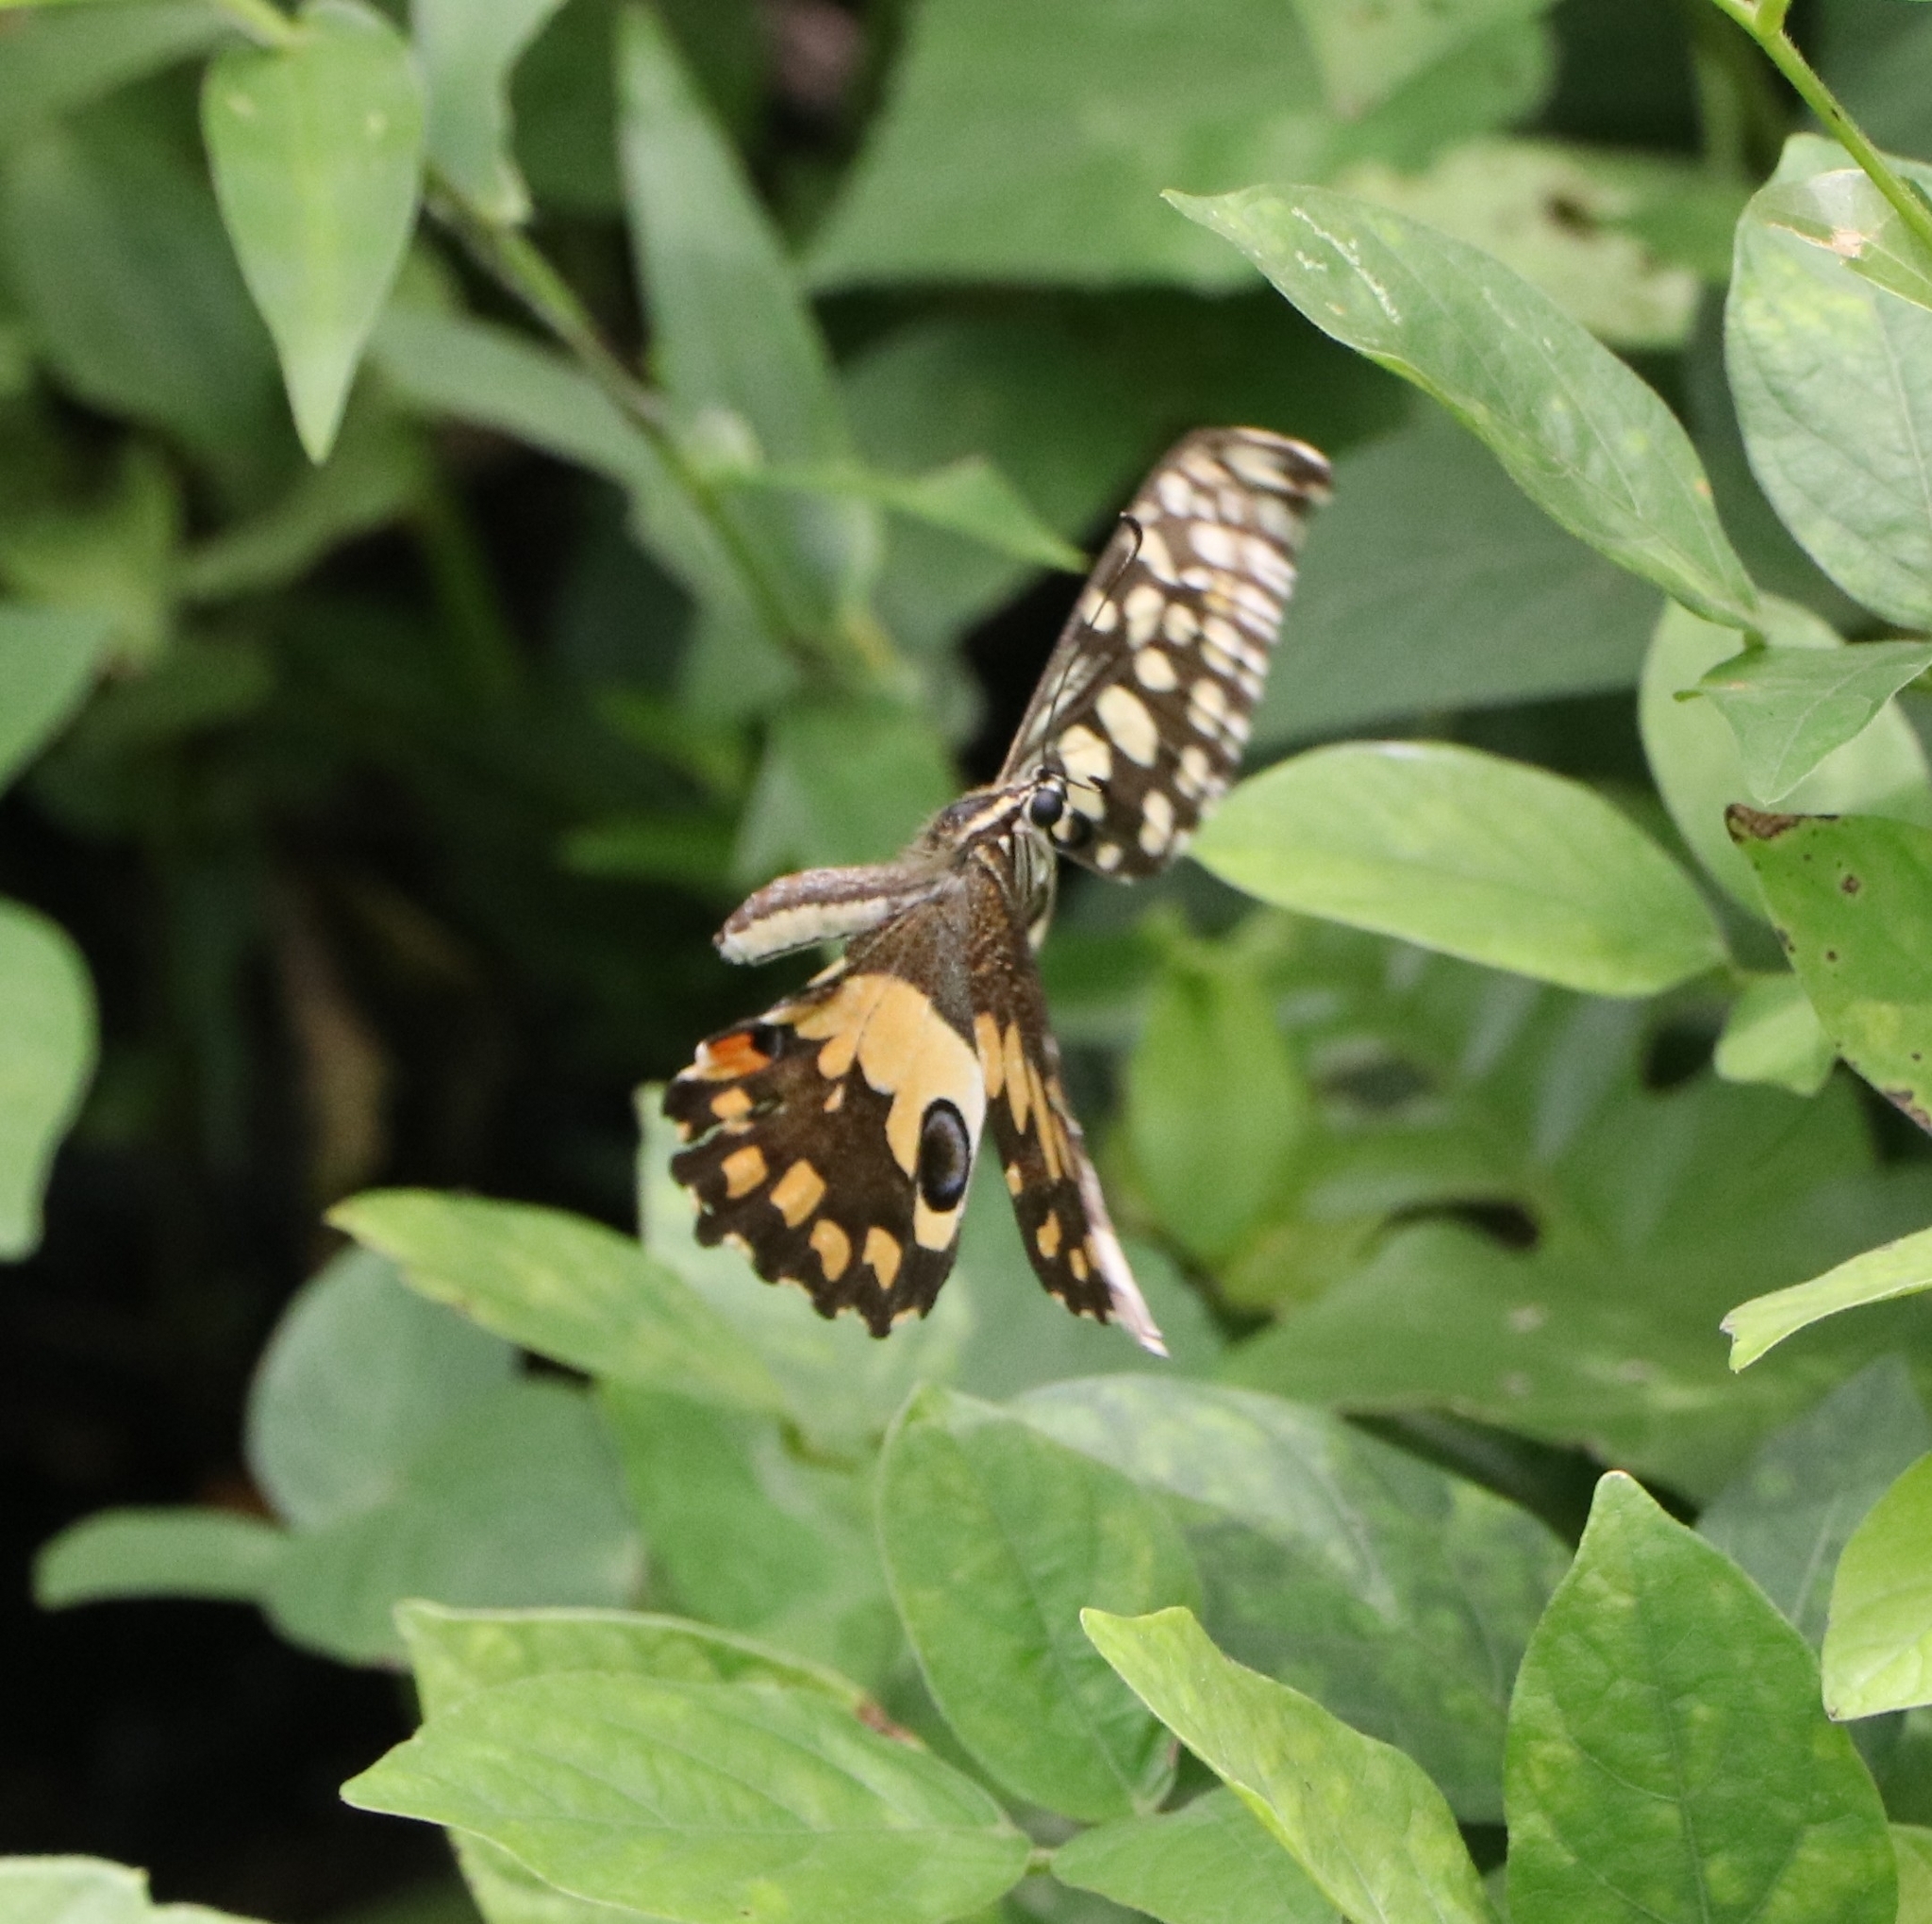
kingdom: Animalia
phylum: Arthropoda
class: Insecta
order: Lepidoptera
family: Papilionidae
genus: Papilio
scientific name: Papilio demoleus
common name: Lime butterfly
